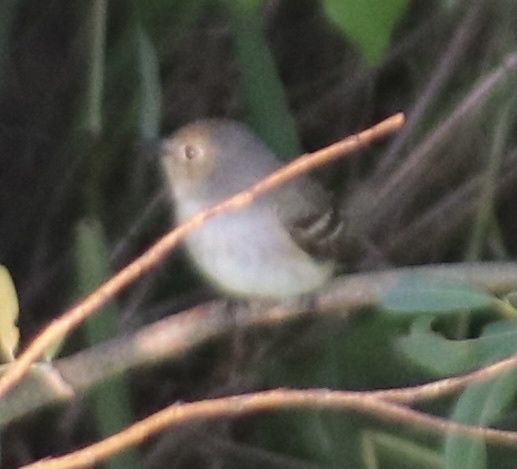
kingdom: Animalia
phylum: Chordata
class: Aves
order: Passeriformes
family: Tyrannidae
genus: Empidonax
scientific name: Empidonax alnorum
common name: Alder flycatcher
